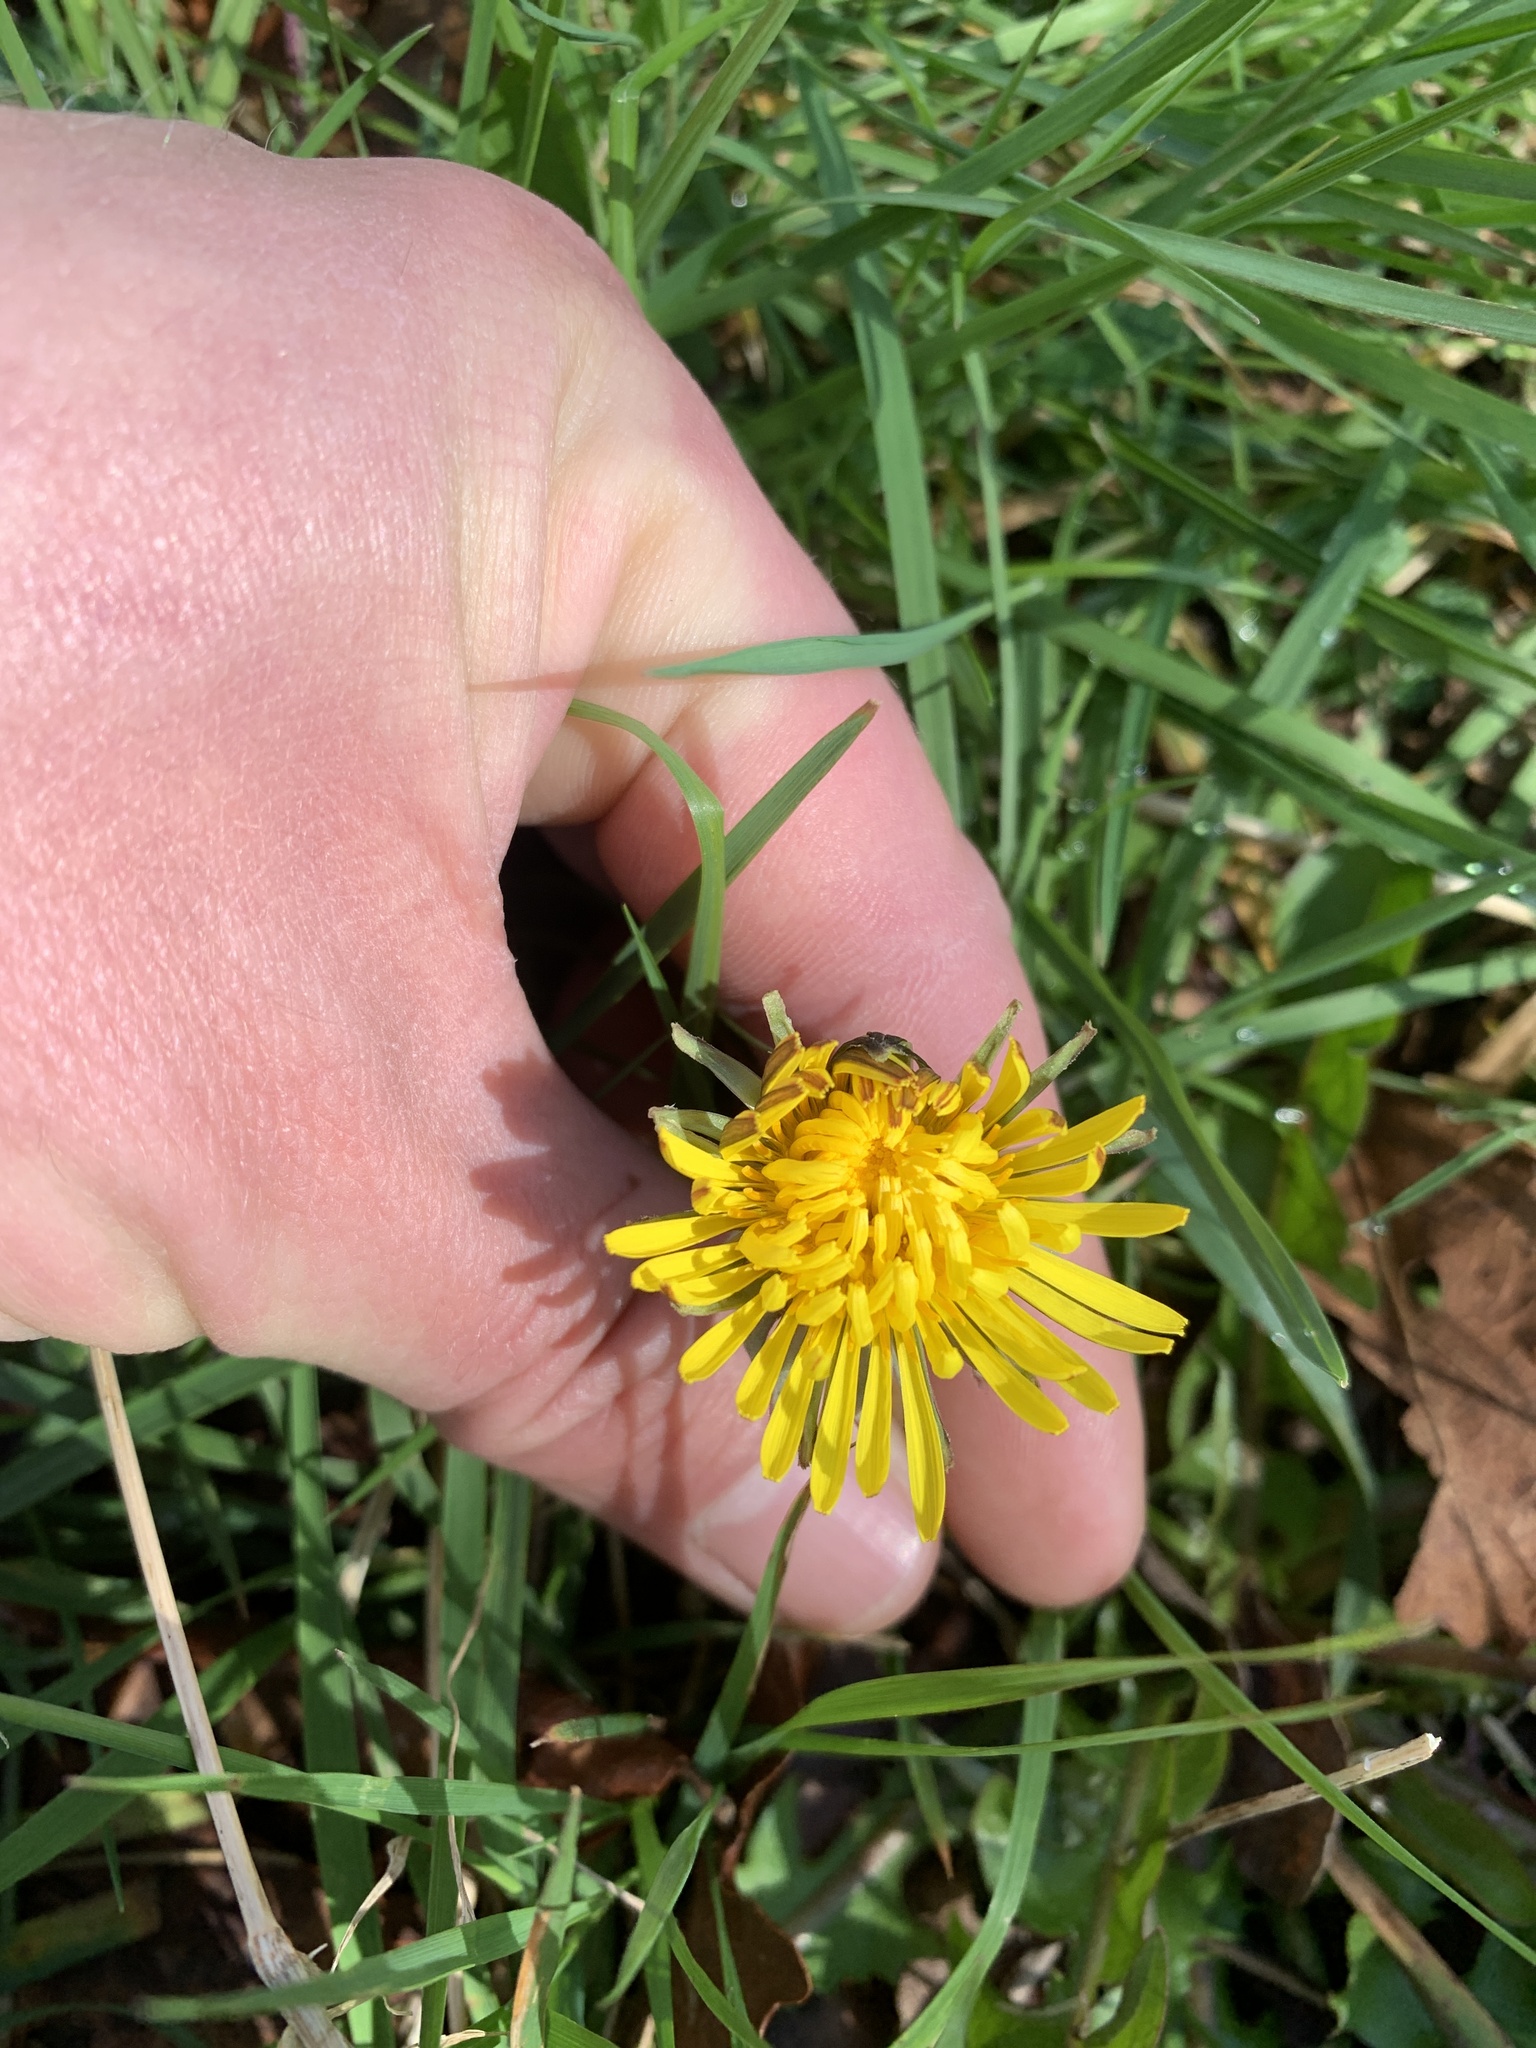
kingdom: Plantae
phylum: Tracheophyta
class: Magnoliopsida
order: Asterales
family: Asteraceae
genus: Taraxacum
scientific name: Taraxacum officinale
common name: Common dandelion
